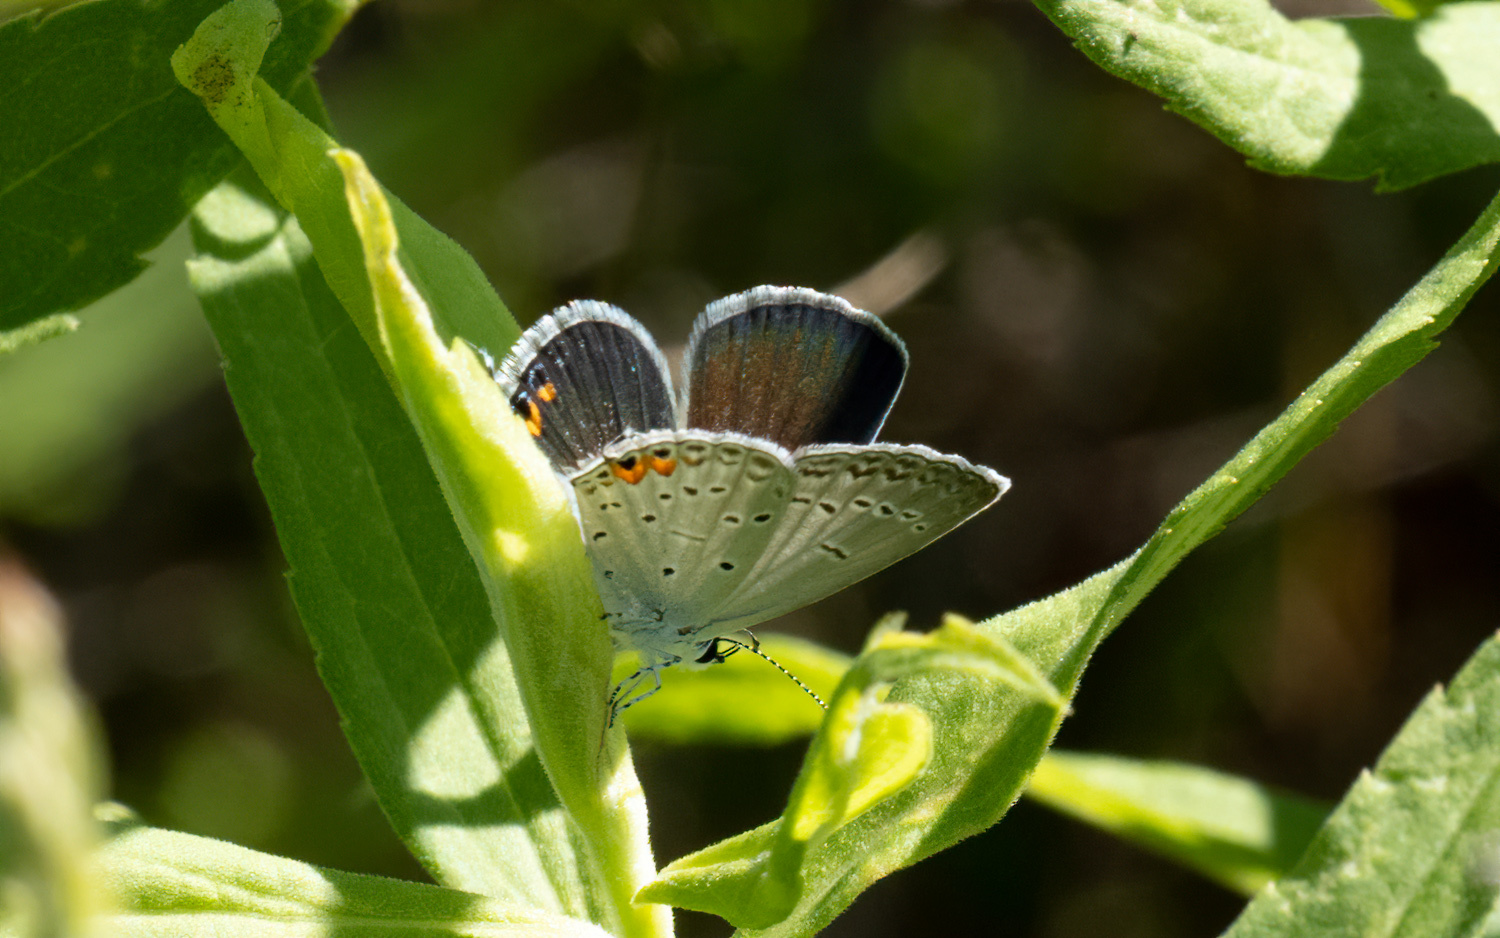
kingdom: Animalia
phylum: Arthropoda
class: Insecta
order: Lepidoptera
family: Lycaenidae
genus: Elkalyce
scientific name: Elkalyce comyntas
